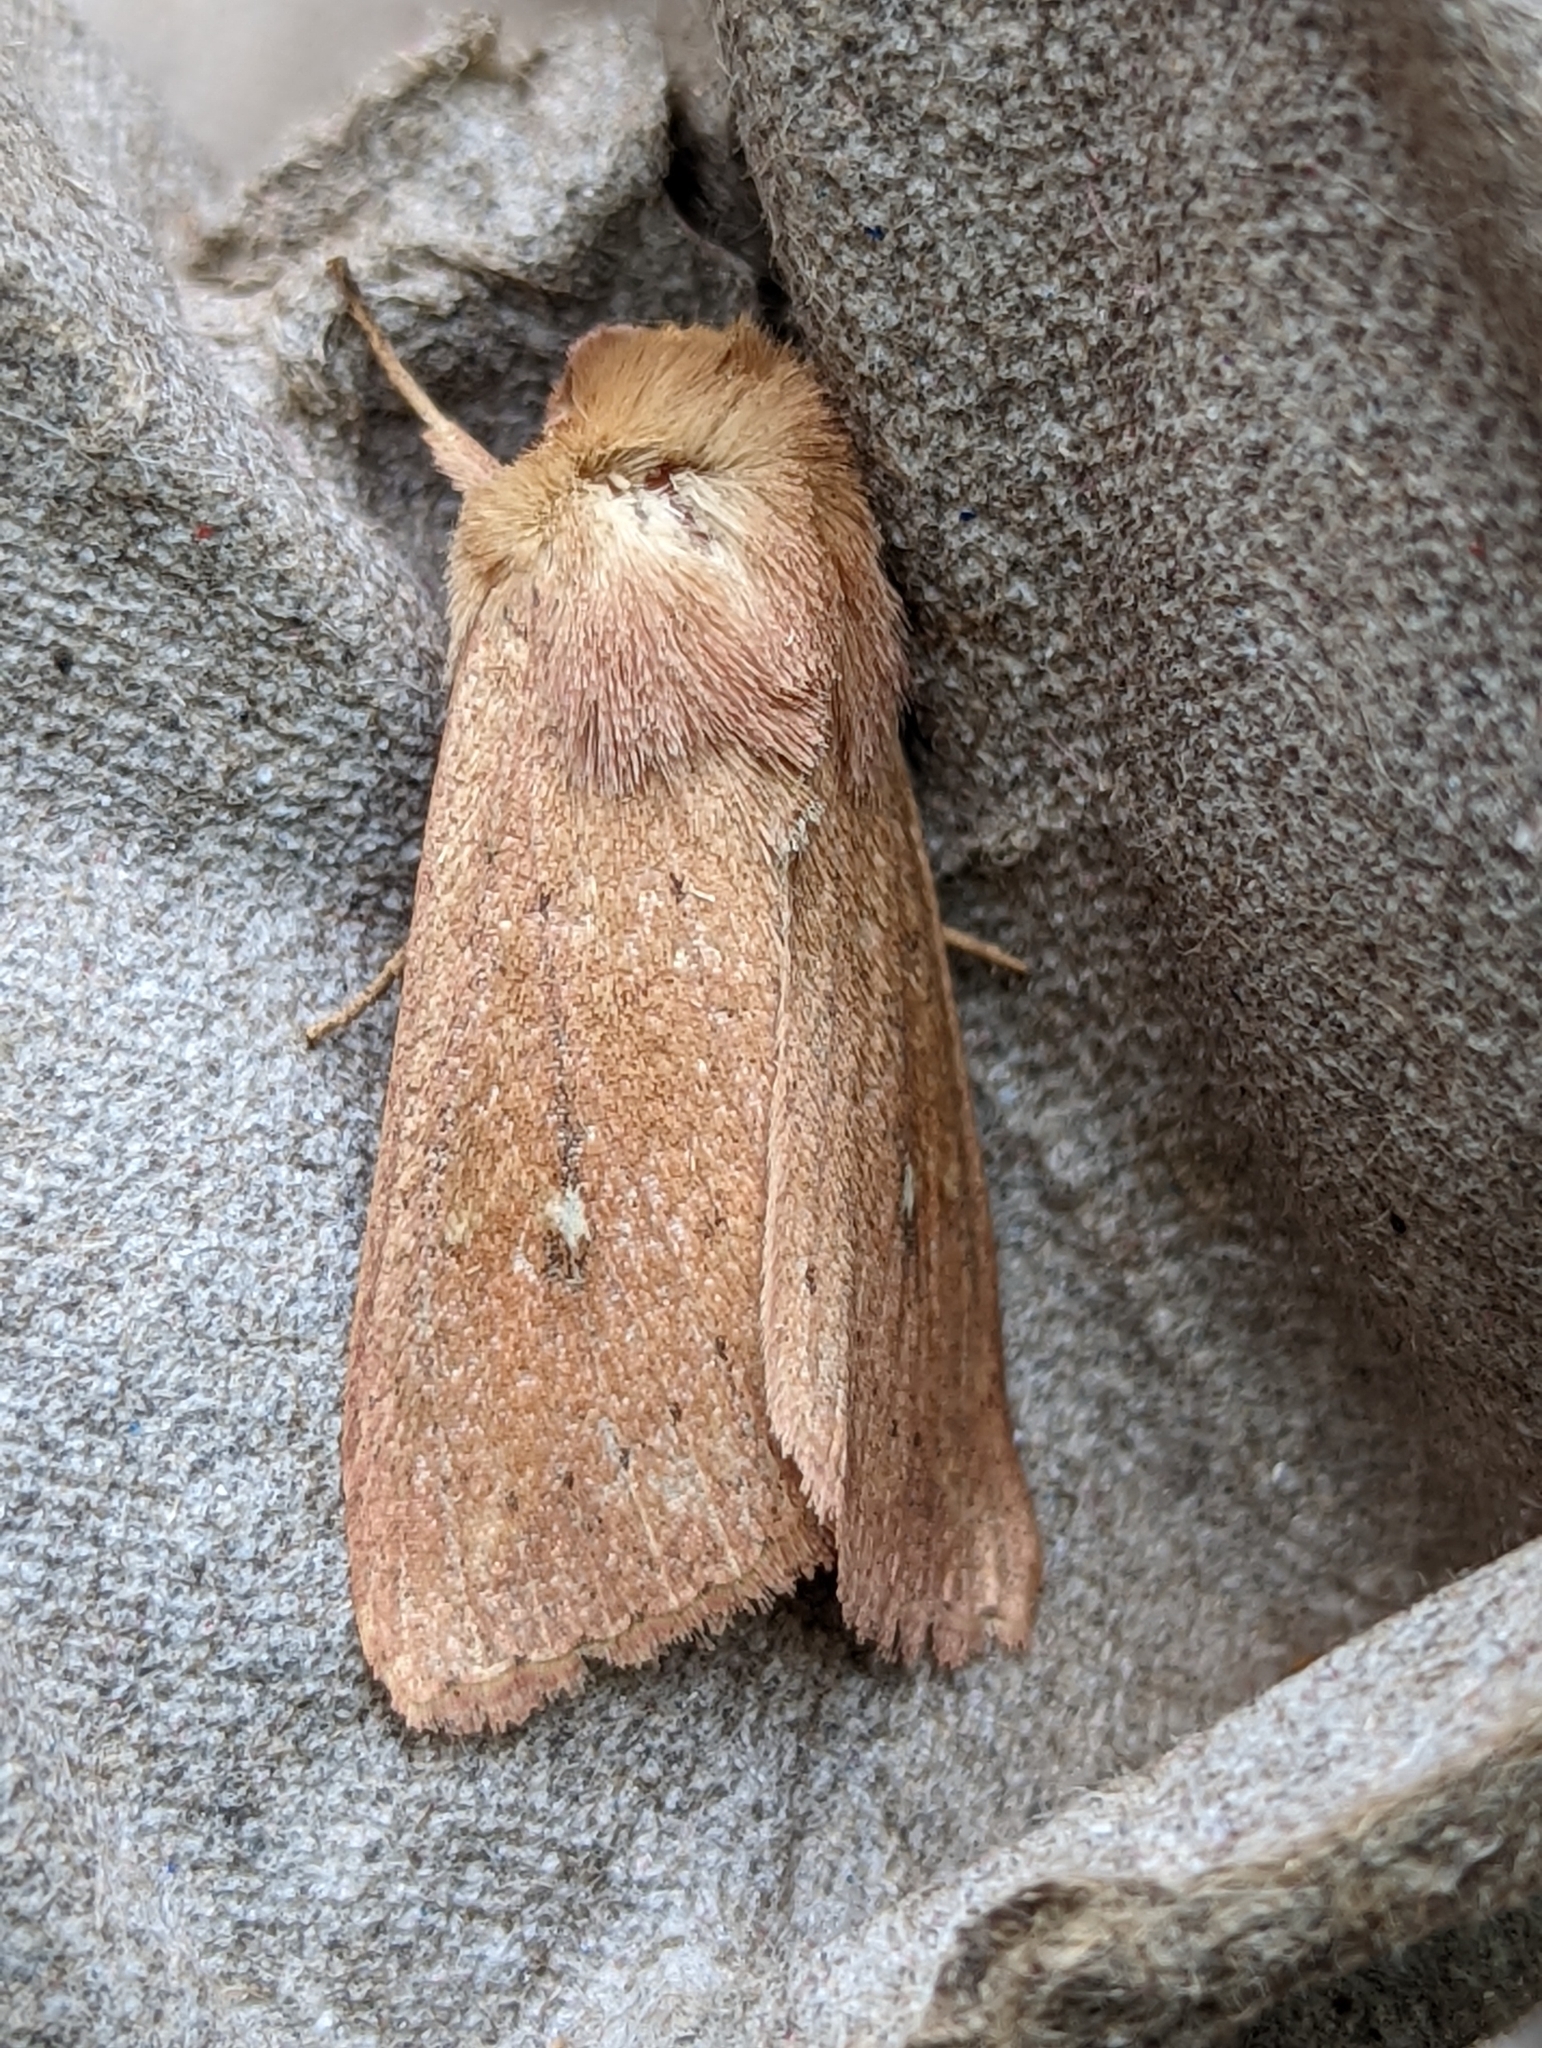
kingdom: Animalia
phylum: Arthropoda
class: Insecta
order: Lepidoptera
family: Noctuidae
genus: Mythimna
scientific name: Mythimna ferrago
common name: Clay
